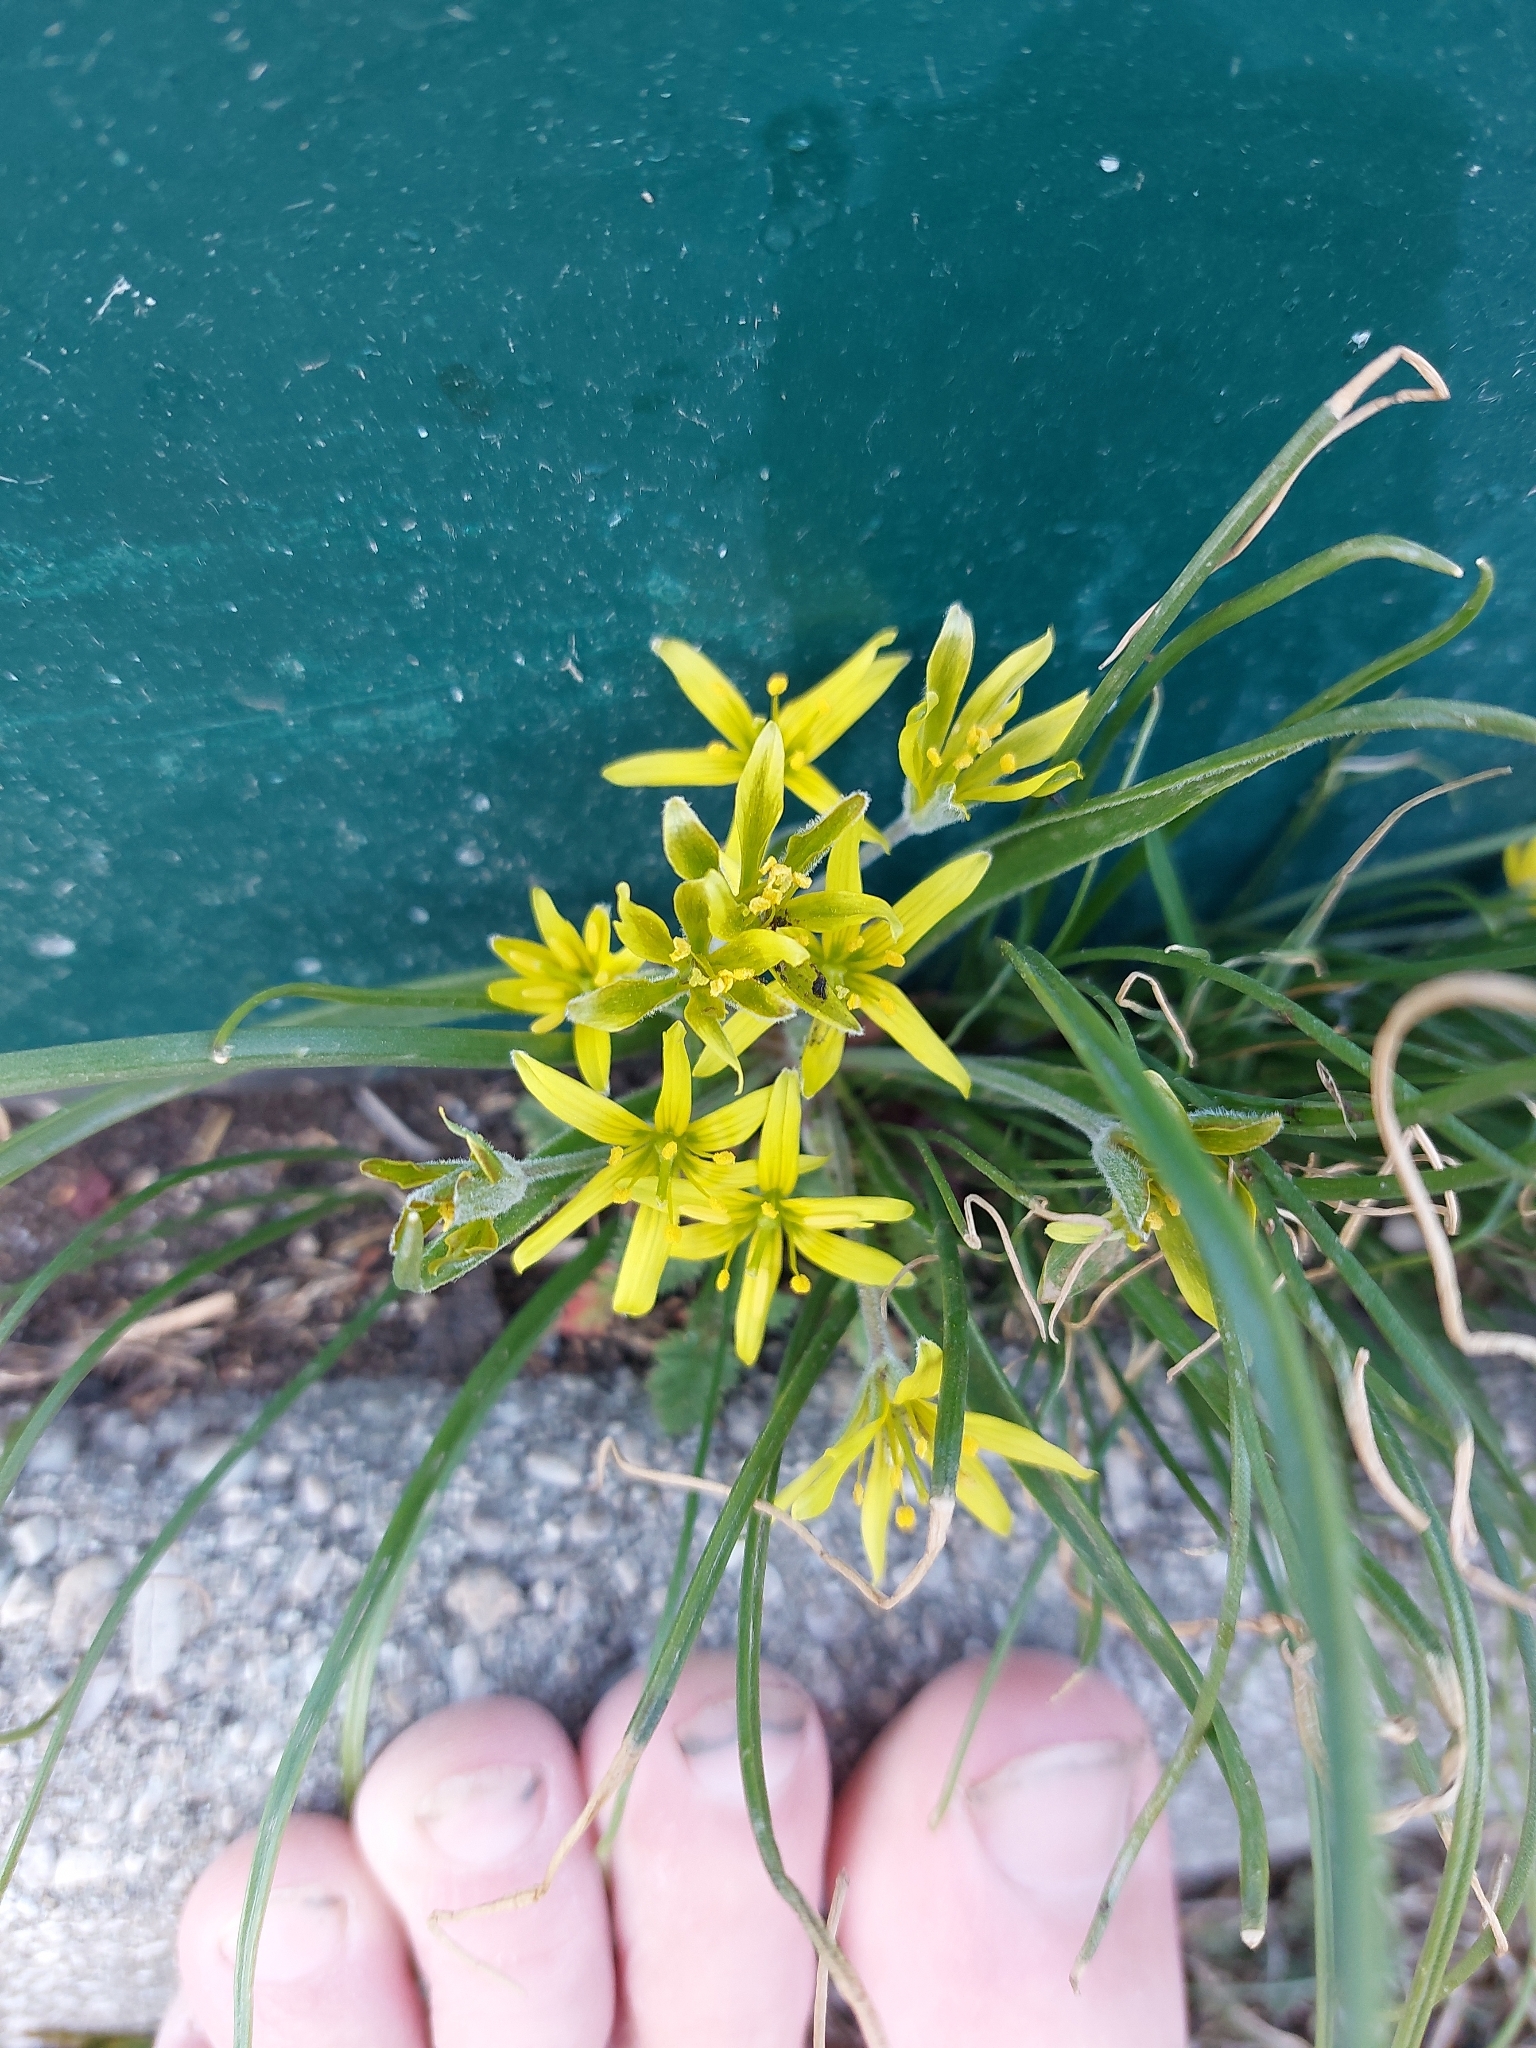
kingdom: Plantae
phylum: Tracheophyta
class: Liliopsida
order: Liliales
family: Liliaceae
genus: Gagea
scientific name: Gagea villosa
